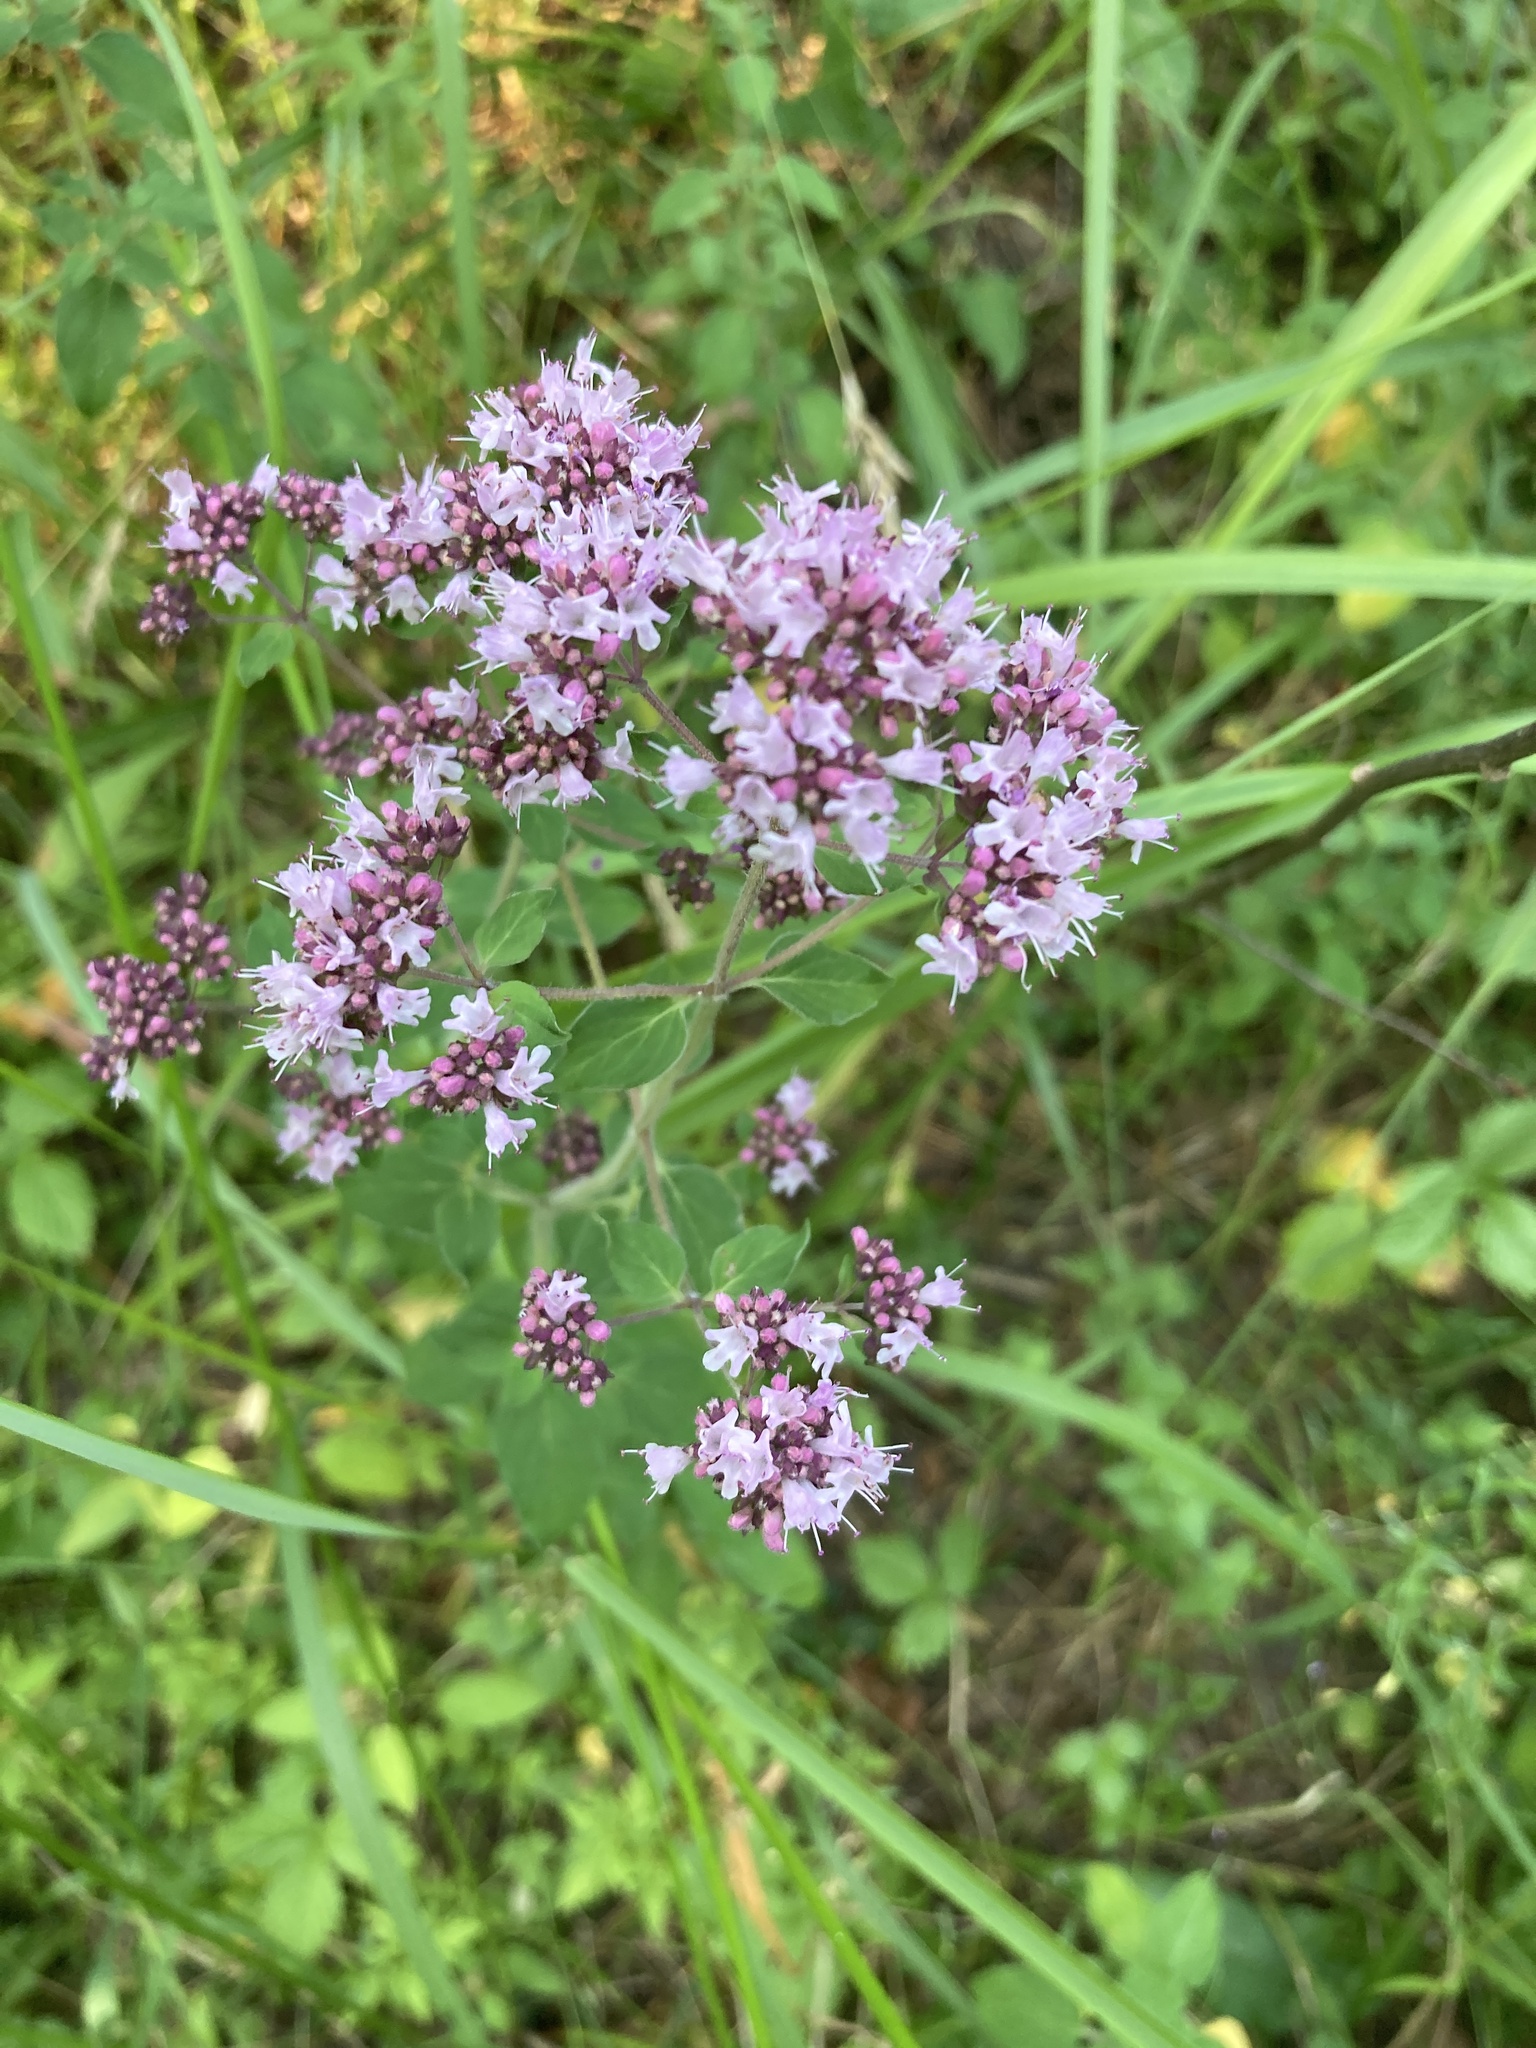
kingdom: Plantae
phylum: Tracheophyta
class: Magnoliopsida
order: Lamiales
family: Lamiaceae
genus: Origanum
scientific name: Origanum vulgare
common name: Wild marjoram
